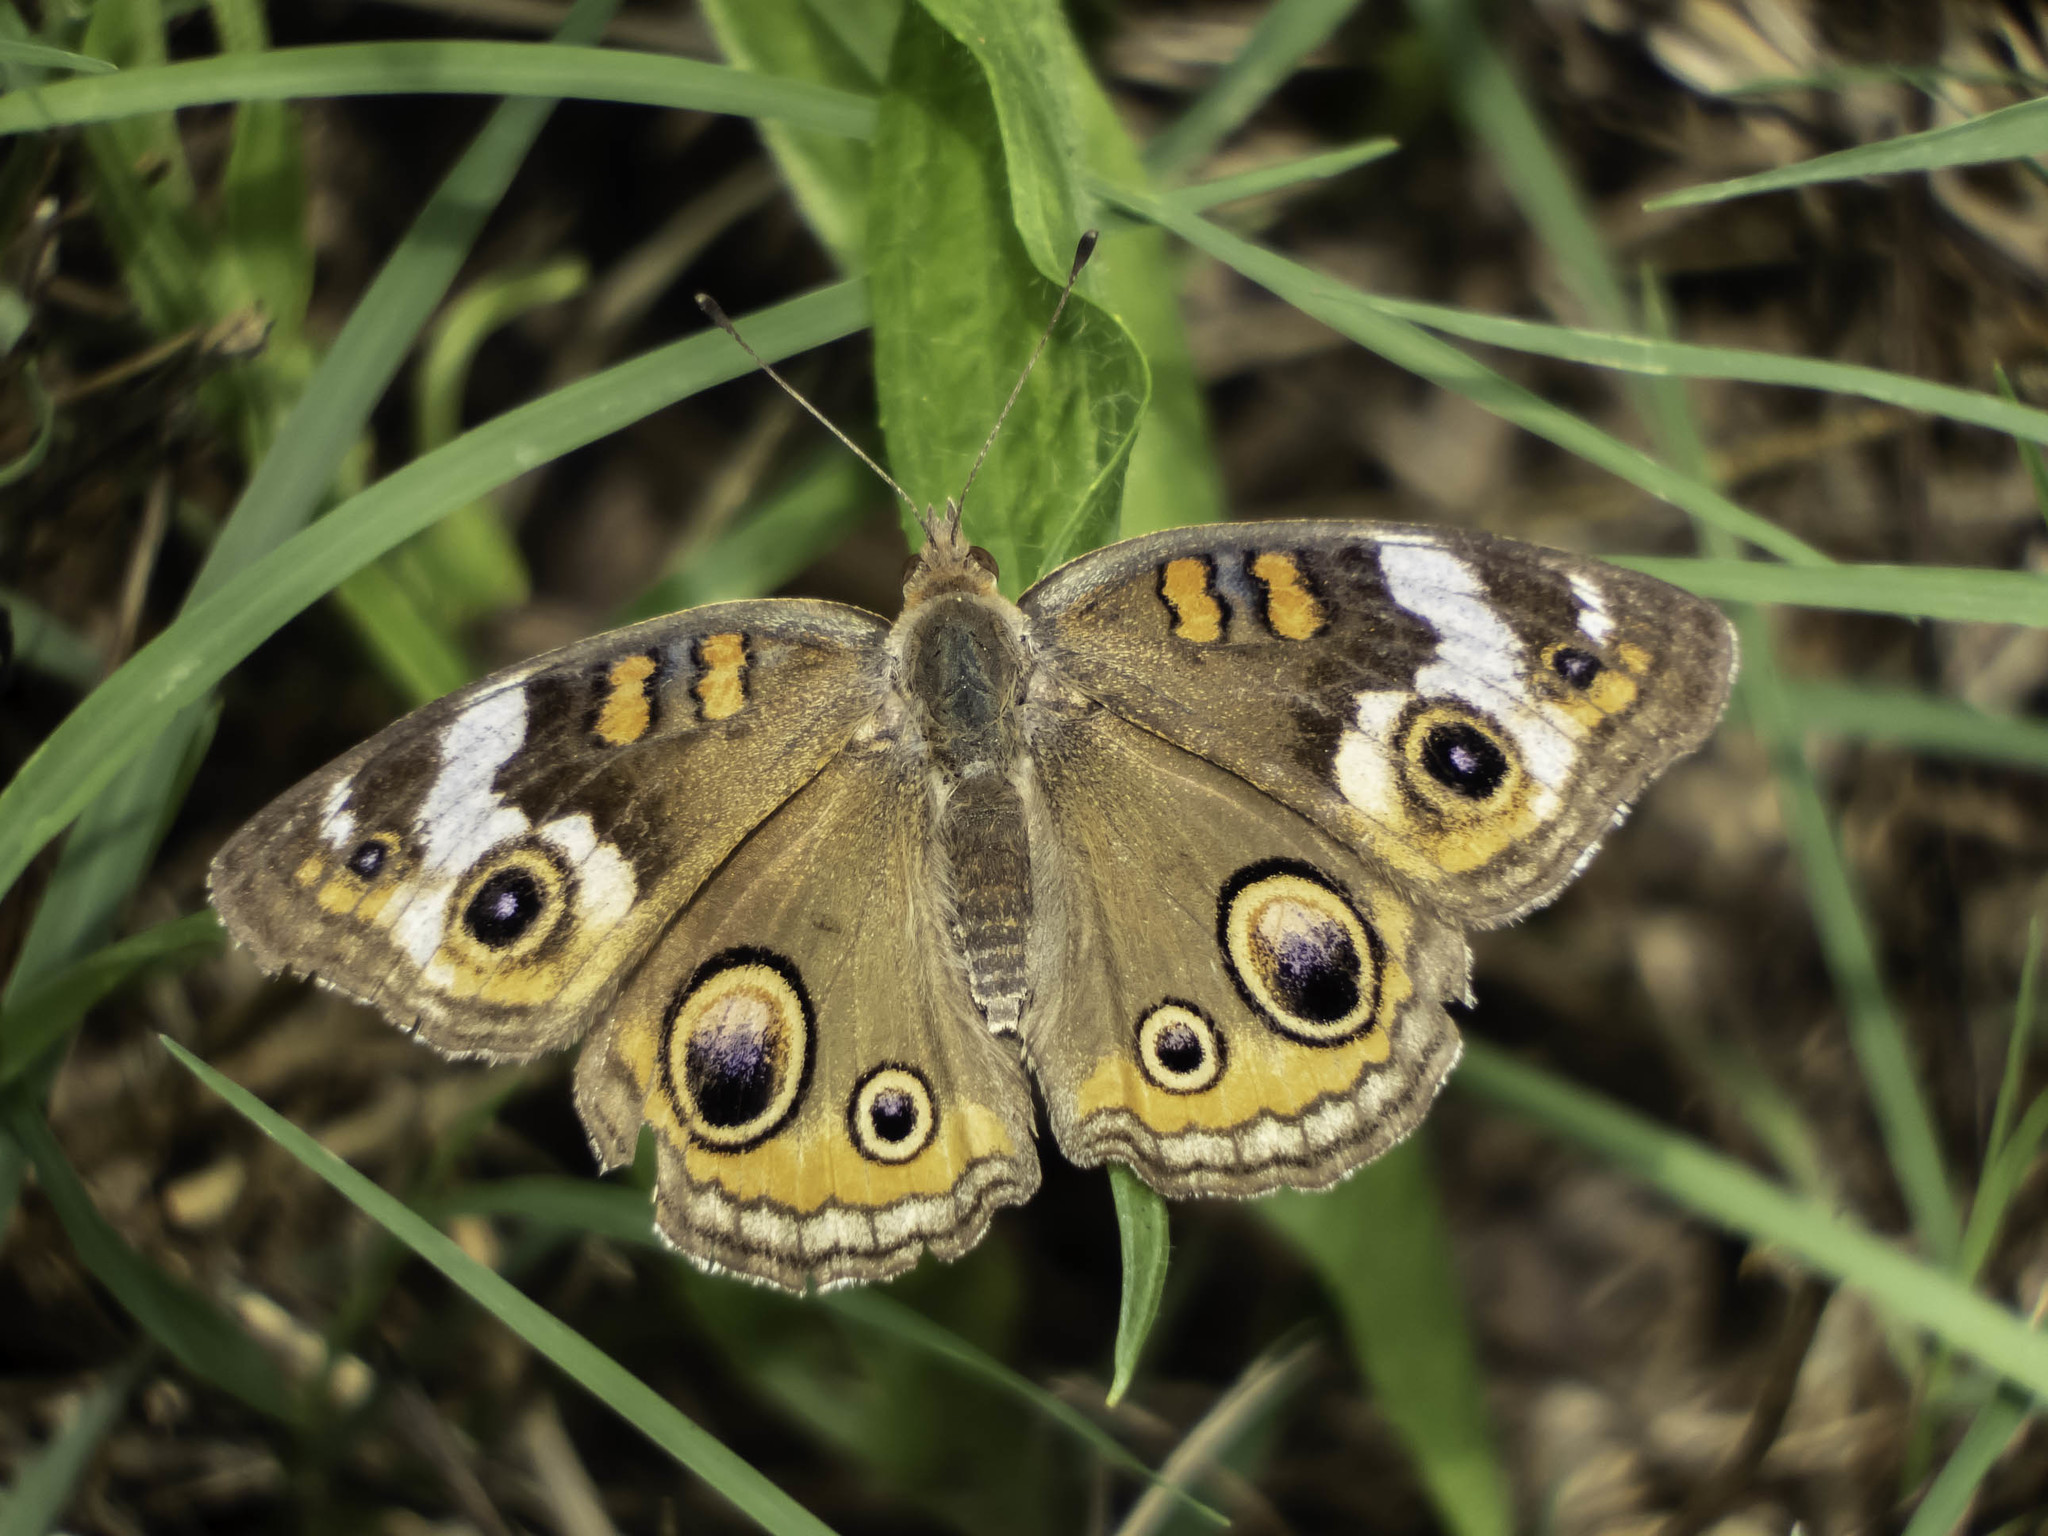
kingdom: Animalia
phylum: Arthropoda
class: Insecta
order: Lepidoptera
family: Nymphalidae
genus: Junonia
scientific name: Junonia coenia
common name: Common buckeye
